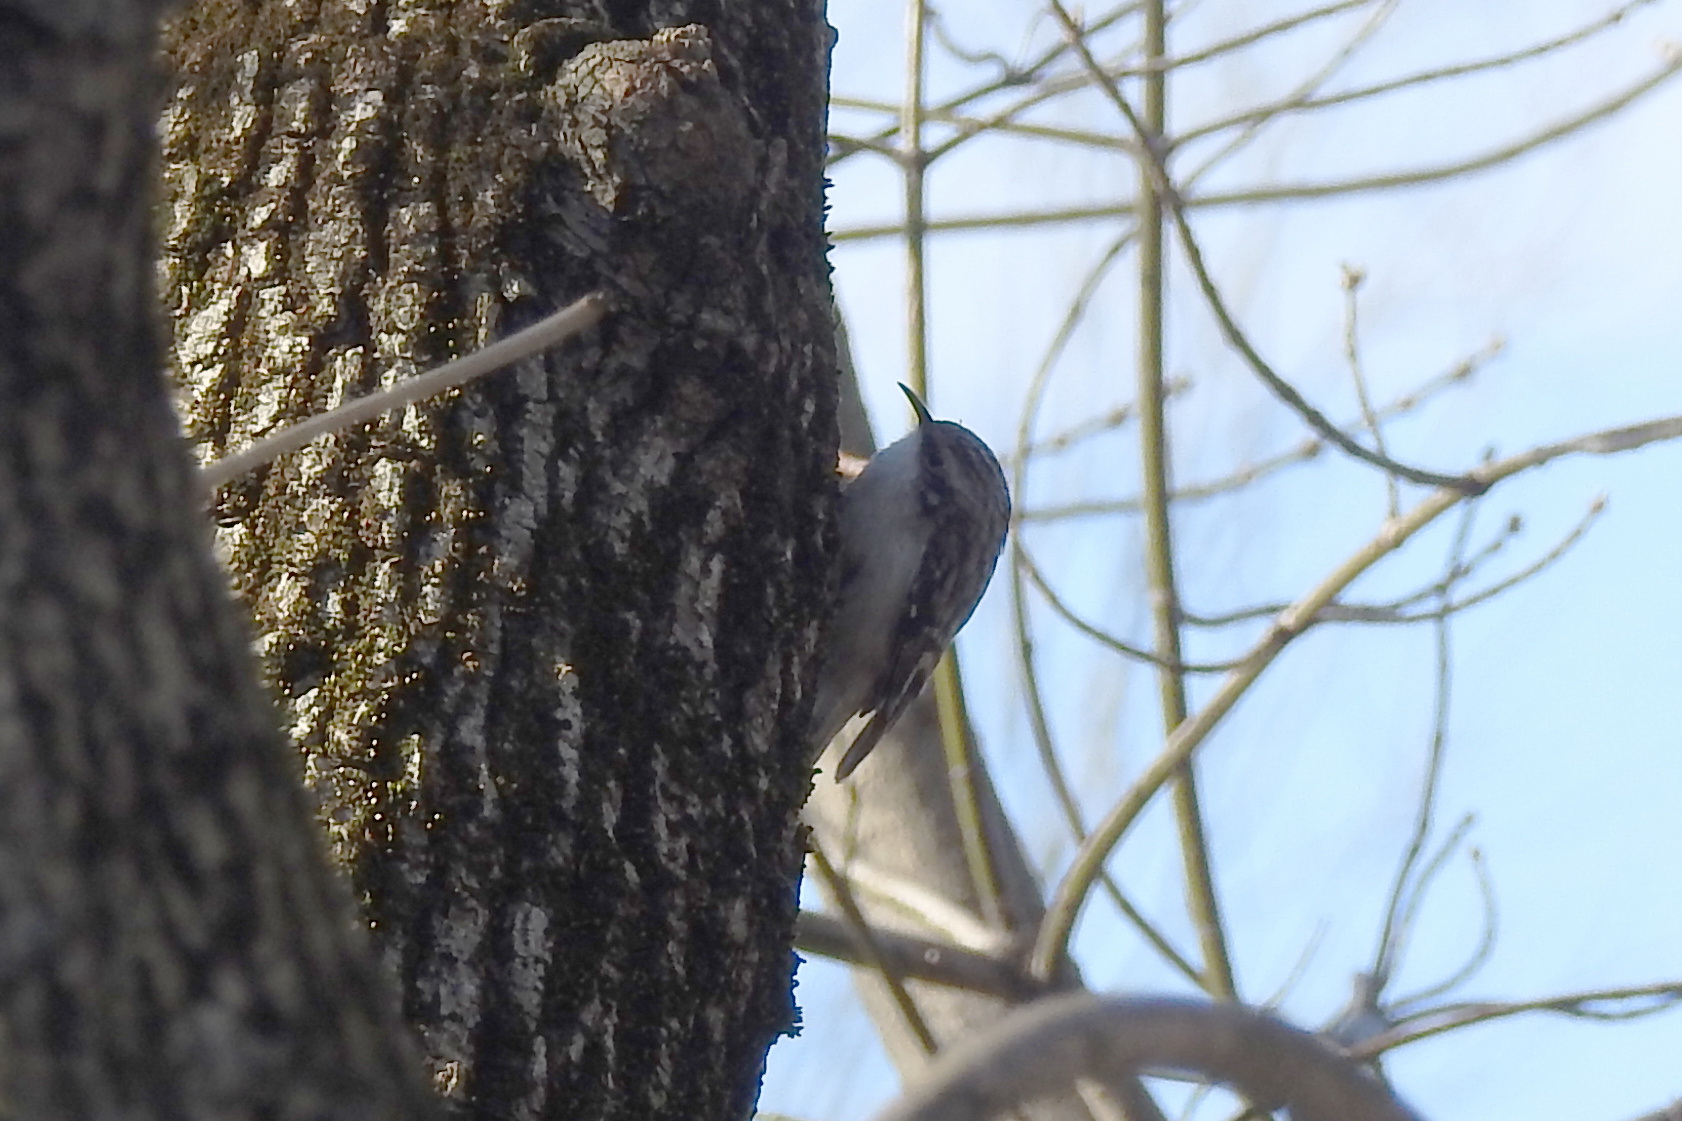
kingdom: Animalia
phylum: Chordata
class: Aves
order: Passeriformes
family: Certhiidae
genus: Certhia
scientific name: Certhia americana
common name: Brown creeper
